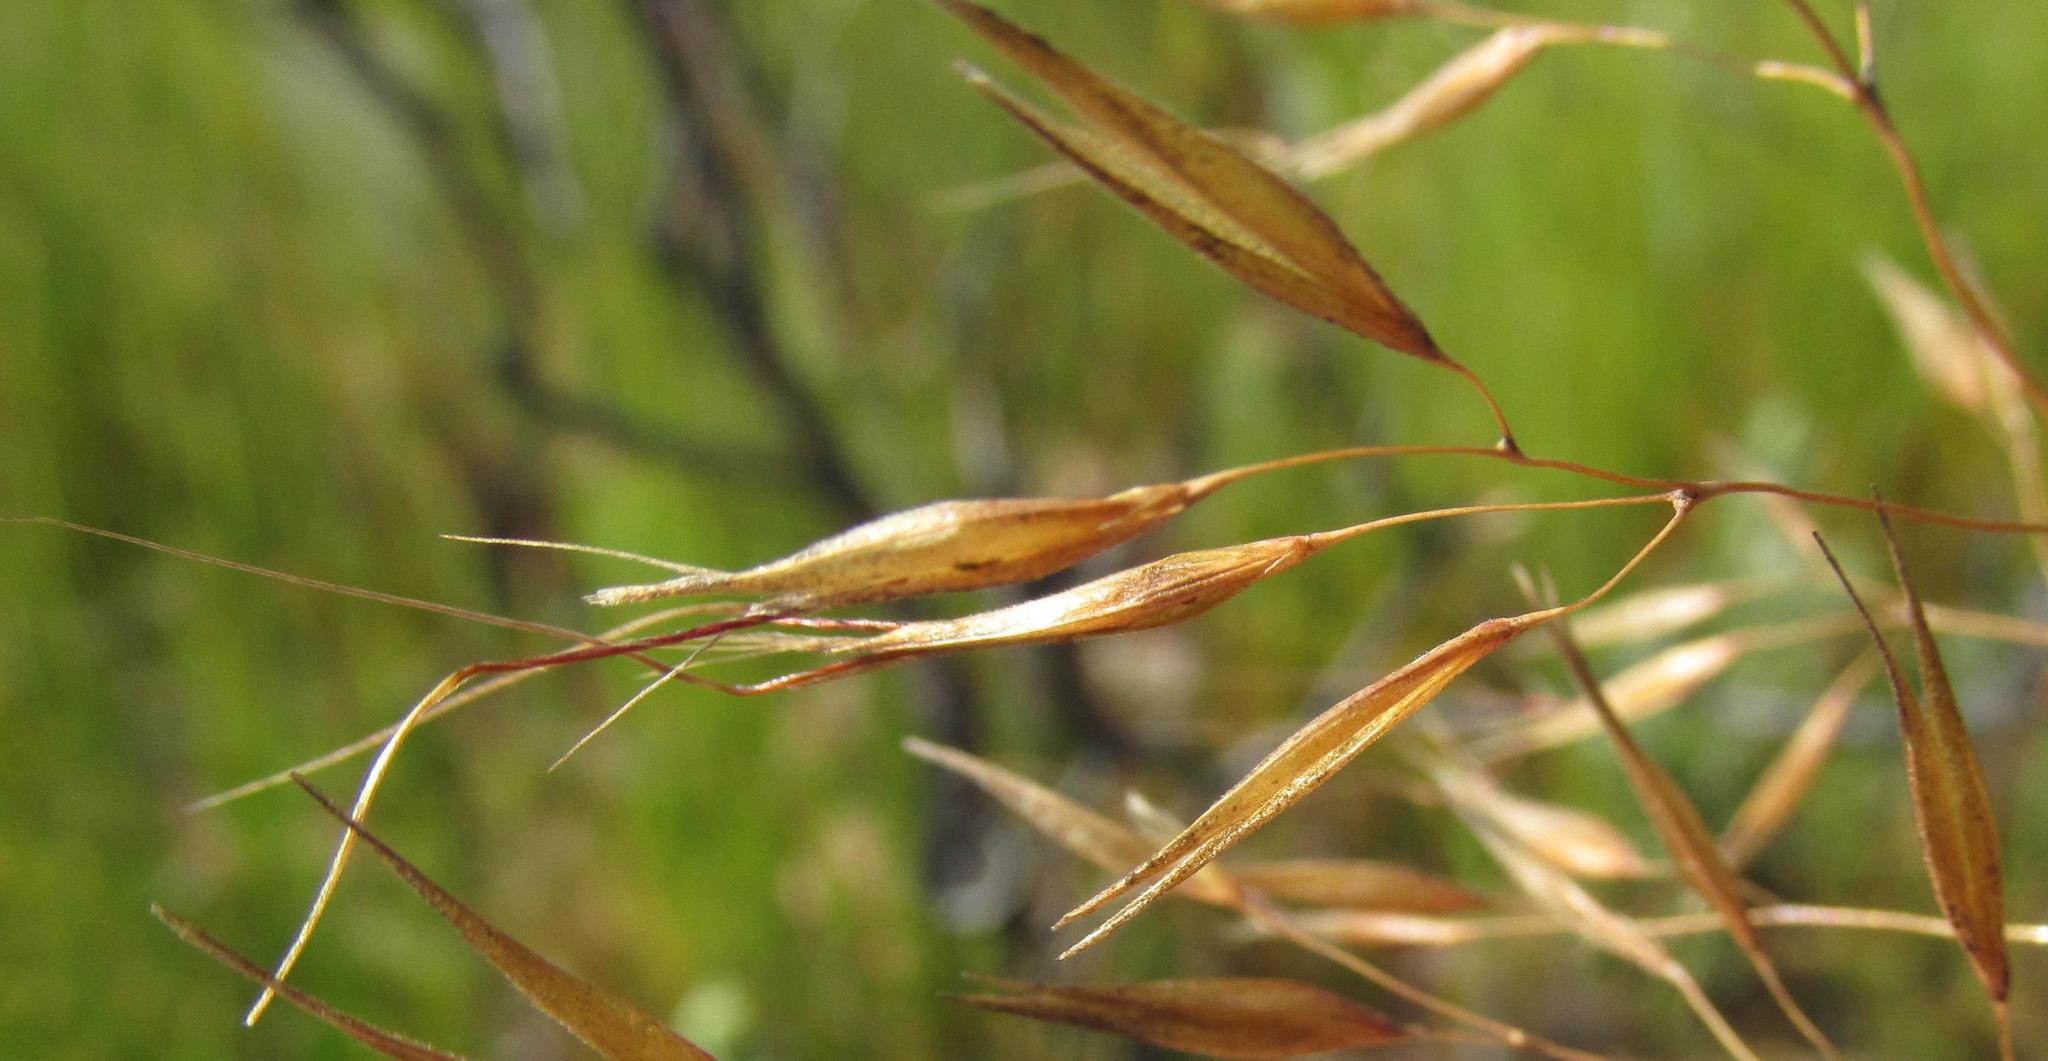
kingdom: Plantae
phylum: Tracheophyta
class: Liliopsida
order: Poales
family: Poaceae
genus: Pentameris
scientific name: Pentameris aristidoides
